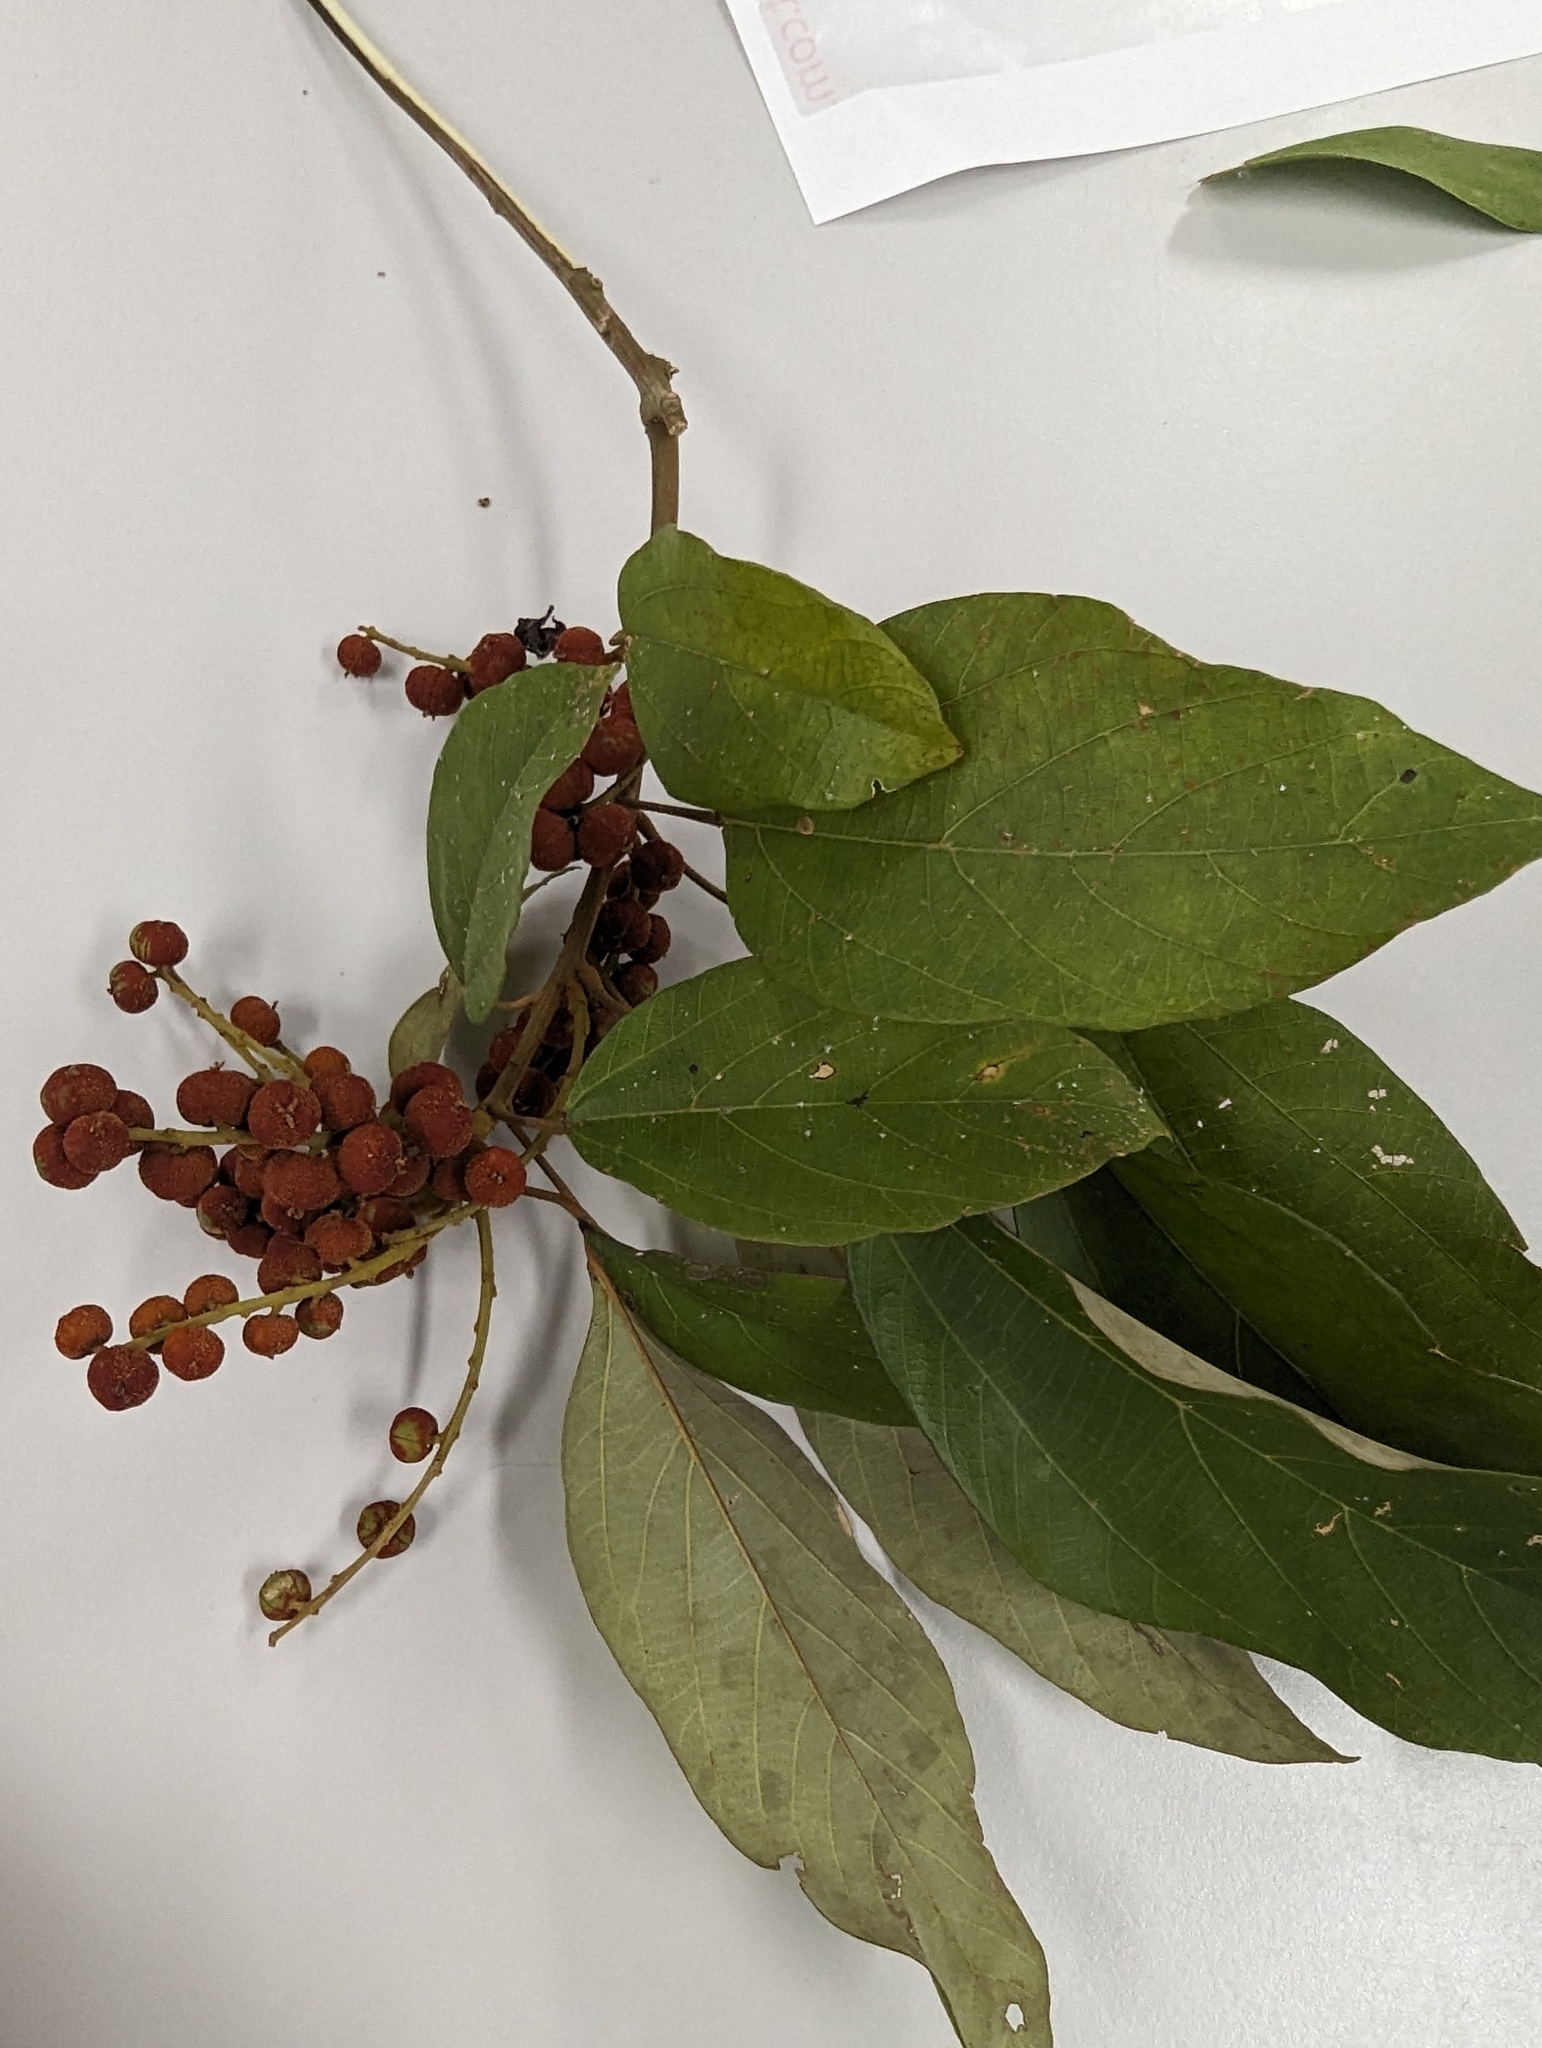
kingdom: Plantae
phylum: Tracheophyta
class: Magnoliopsida
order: Malpighiales
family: Euphorbiaceae
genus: Mallotus
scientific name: Mallotus philippensis
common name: Kamala tree
